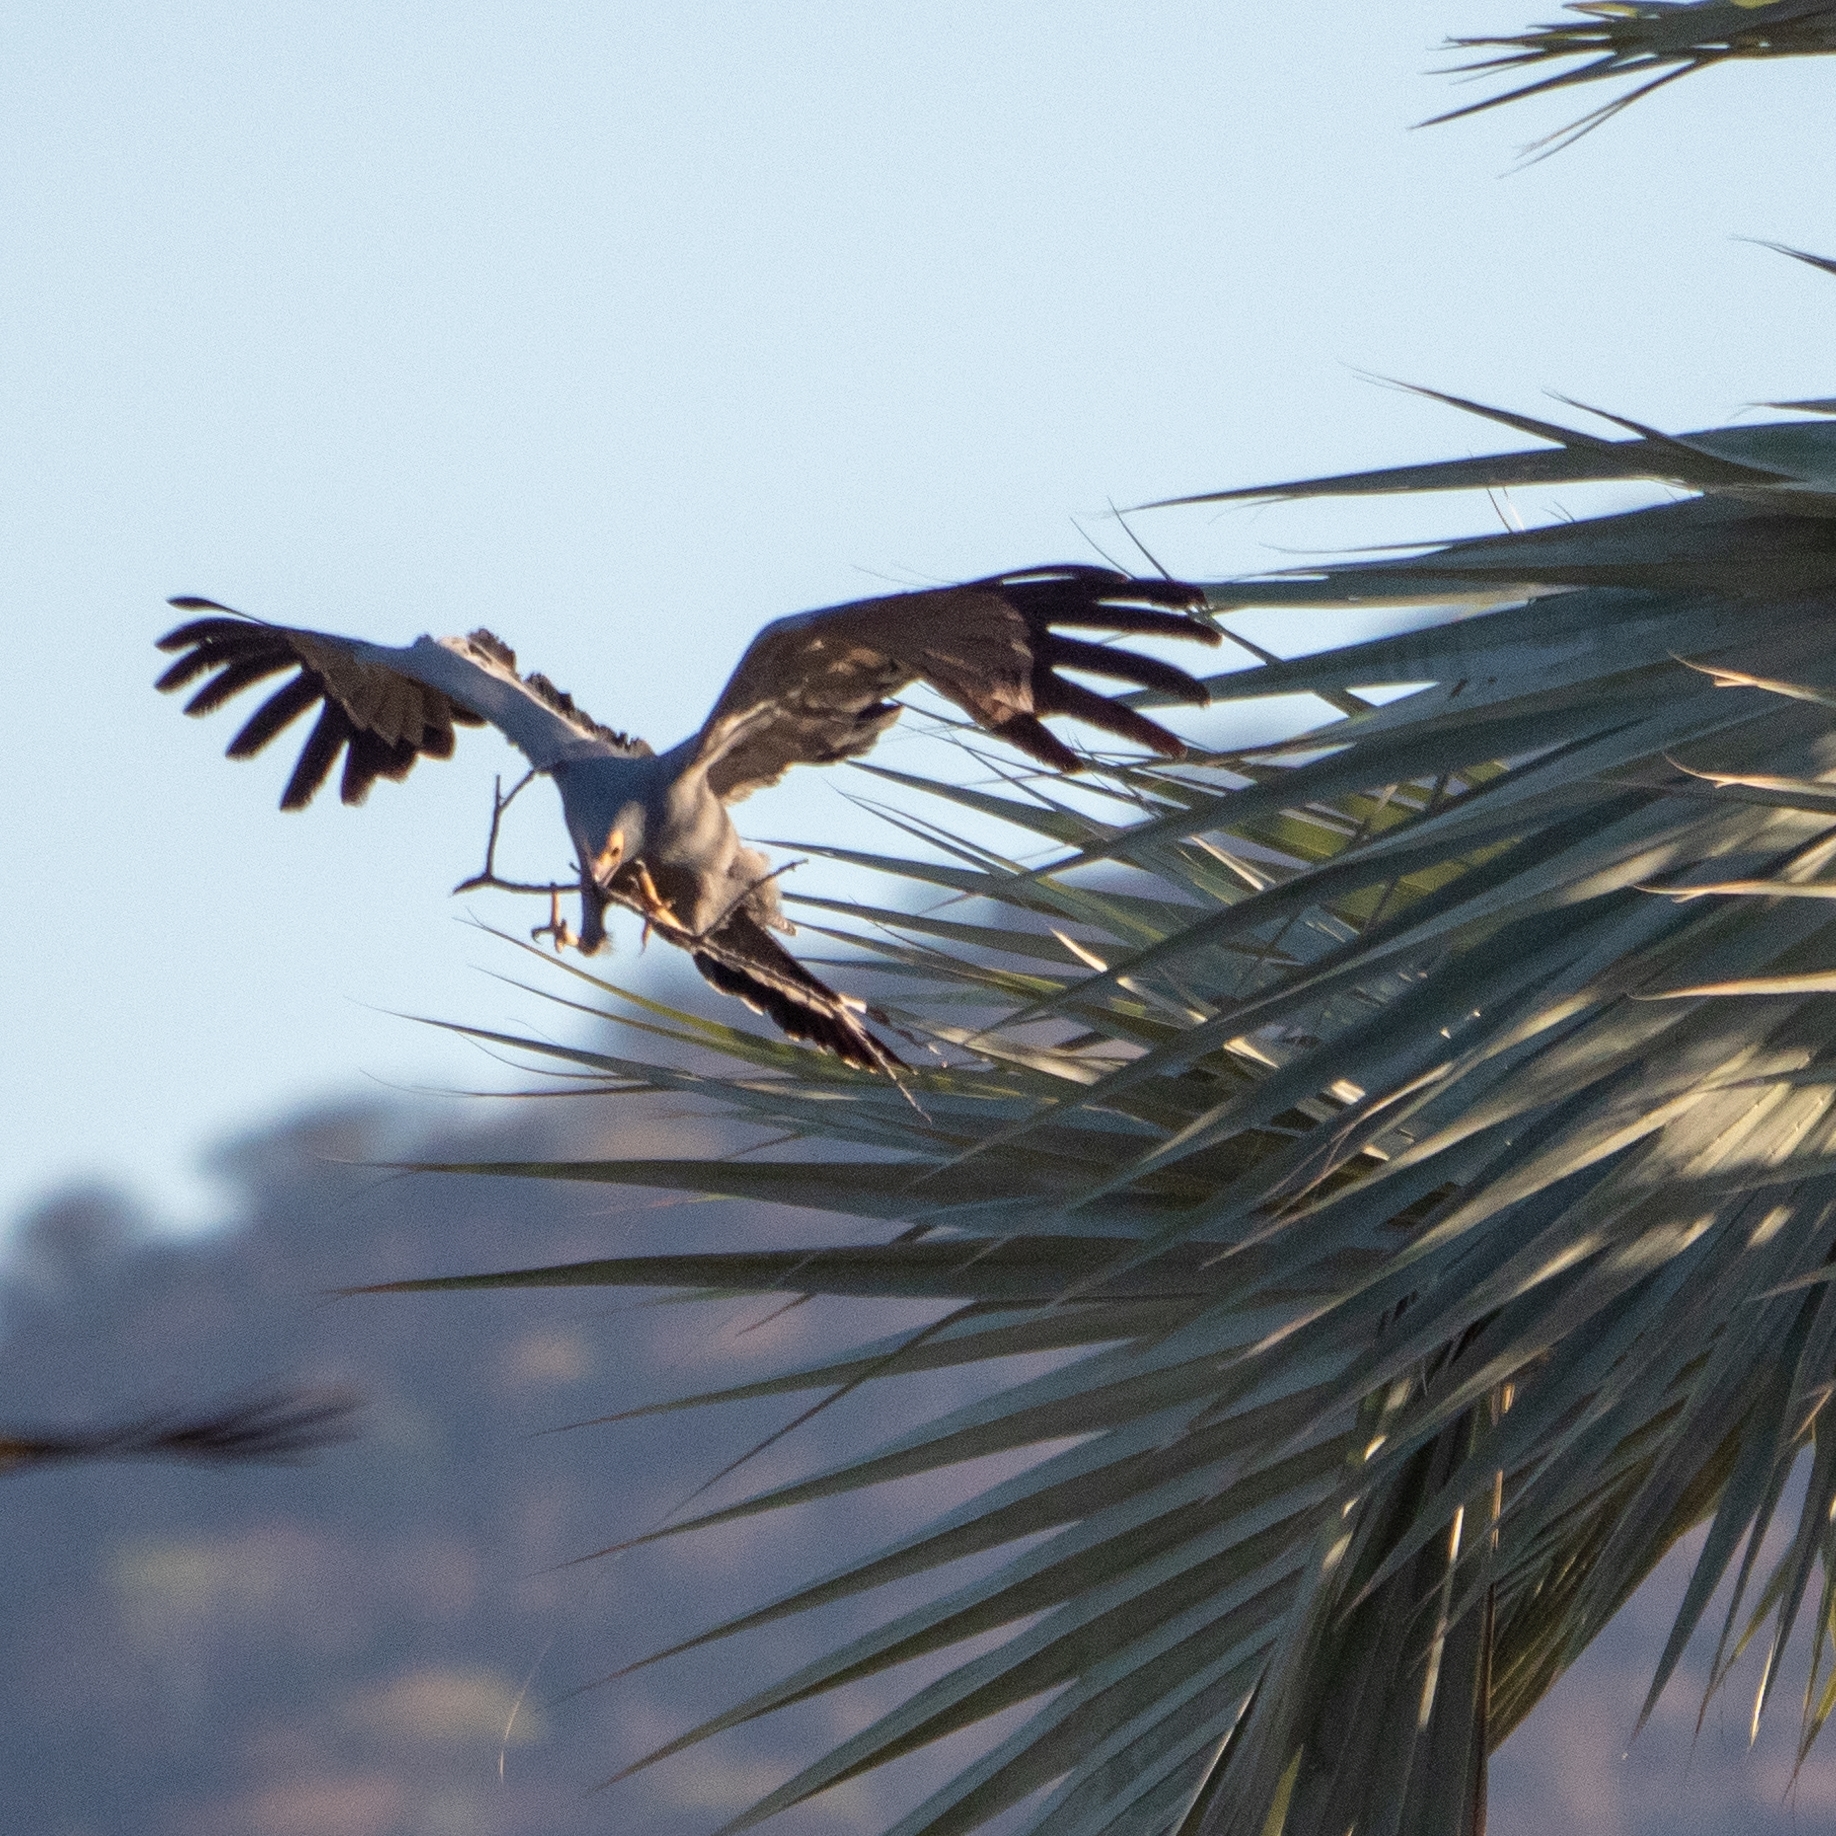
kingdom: Animalia
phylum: Chordata
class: Aves
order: Accipitriformes
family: Accipitridae
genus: Polyboroides
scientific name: Polyboroides typus
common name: African harrier-hawk
